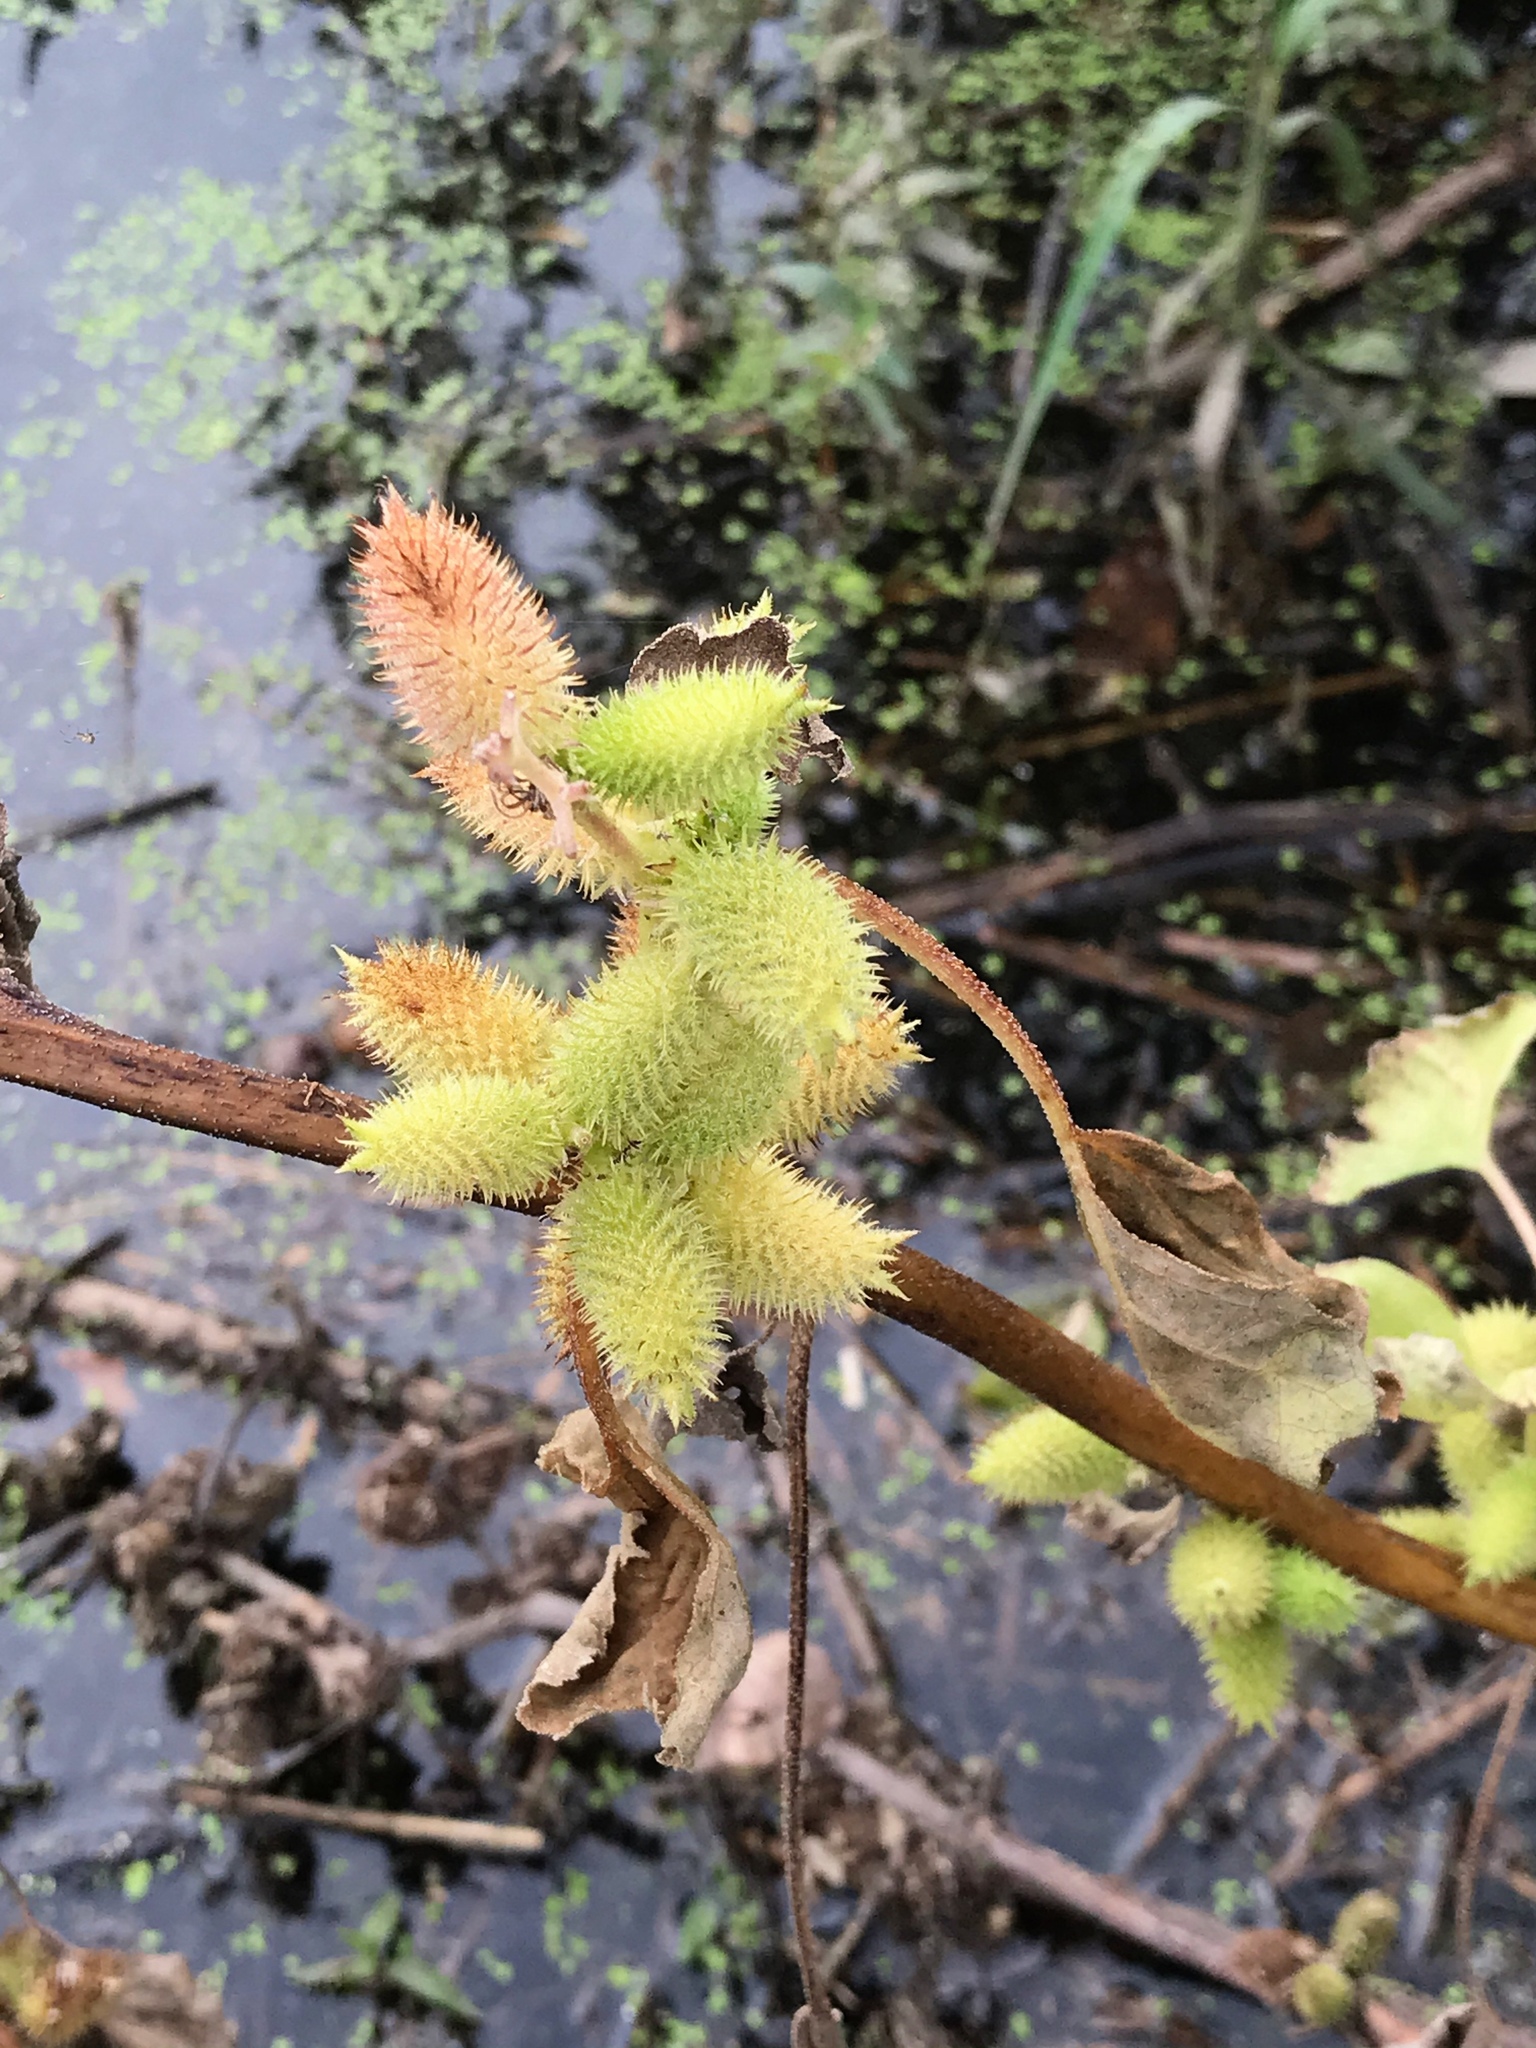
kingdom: Plantae
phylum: Tracheophyta
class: Magnoliopsida
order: Asterales
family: Asteraceae
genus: Xanthium
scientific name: Xanthium strumarium
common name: Rough cocklebur
